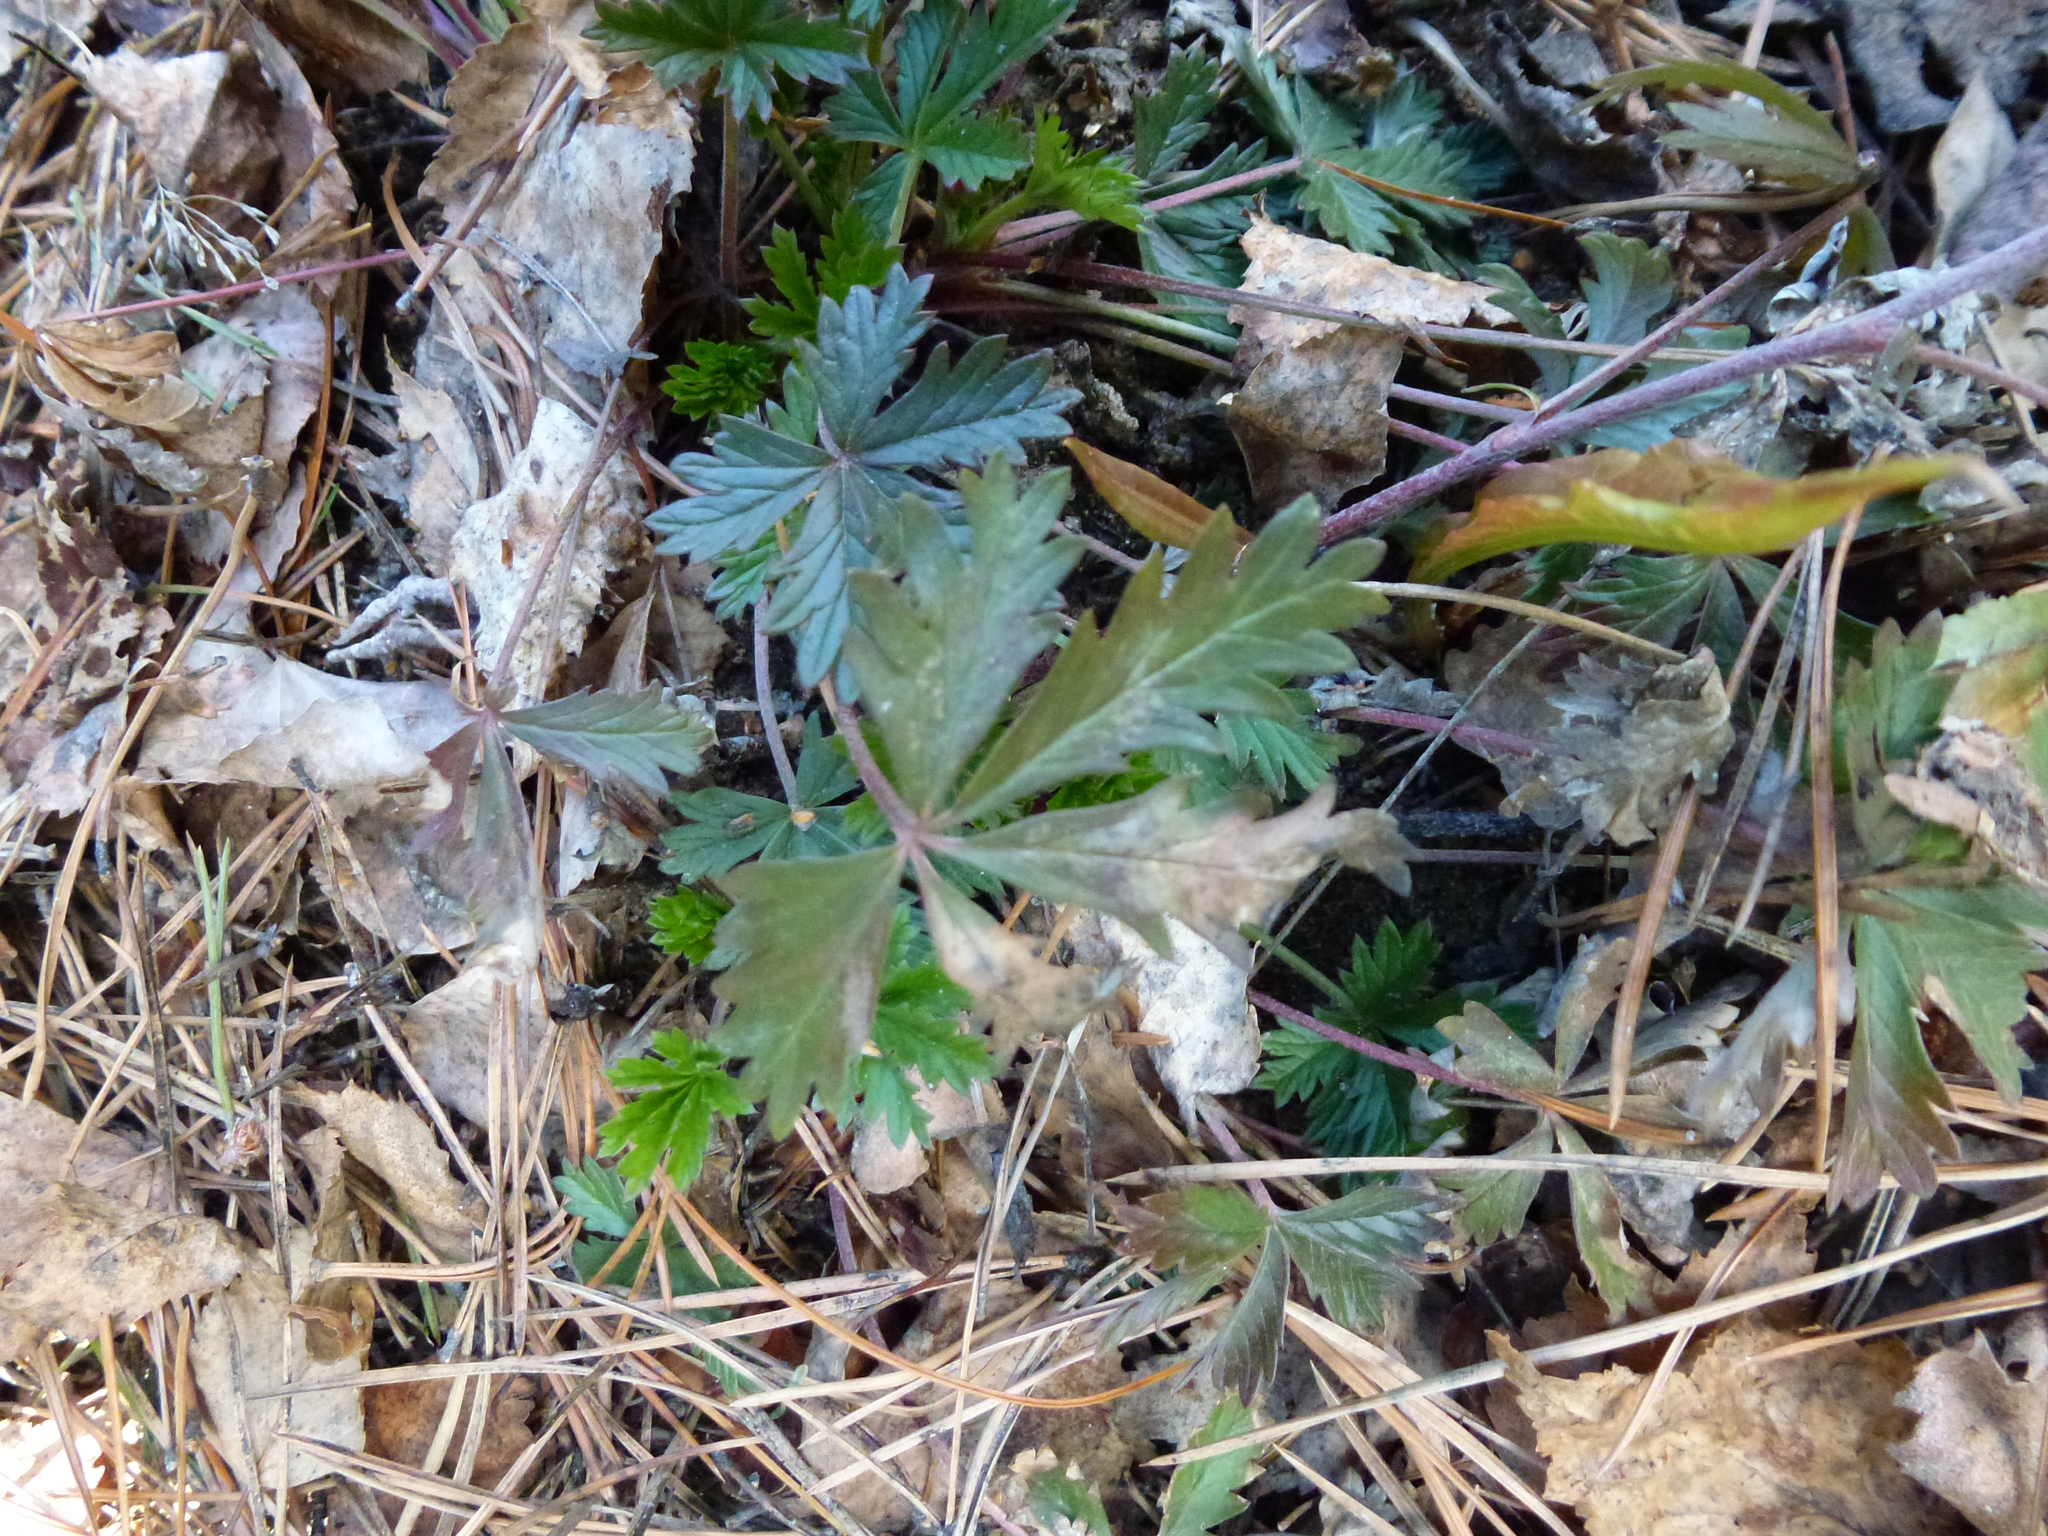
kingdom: Plantae
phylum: Tracheophyta
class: Magnoliopsida
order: Rosales
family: Rosaceae
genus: Potentilla
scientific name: Potentilla argentea
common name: Hoary cinquefoil
